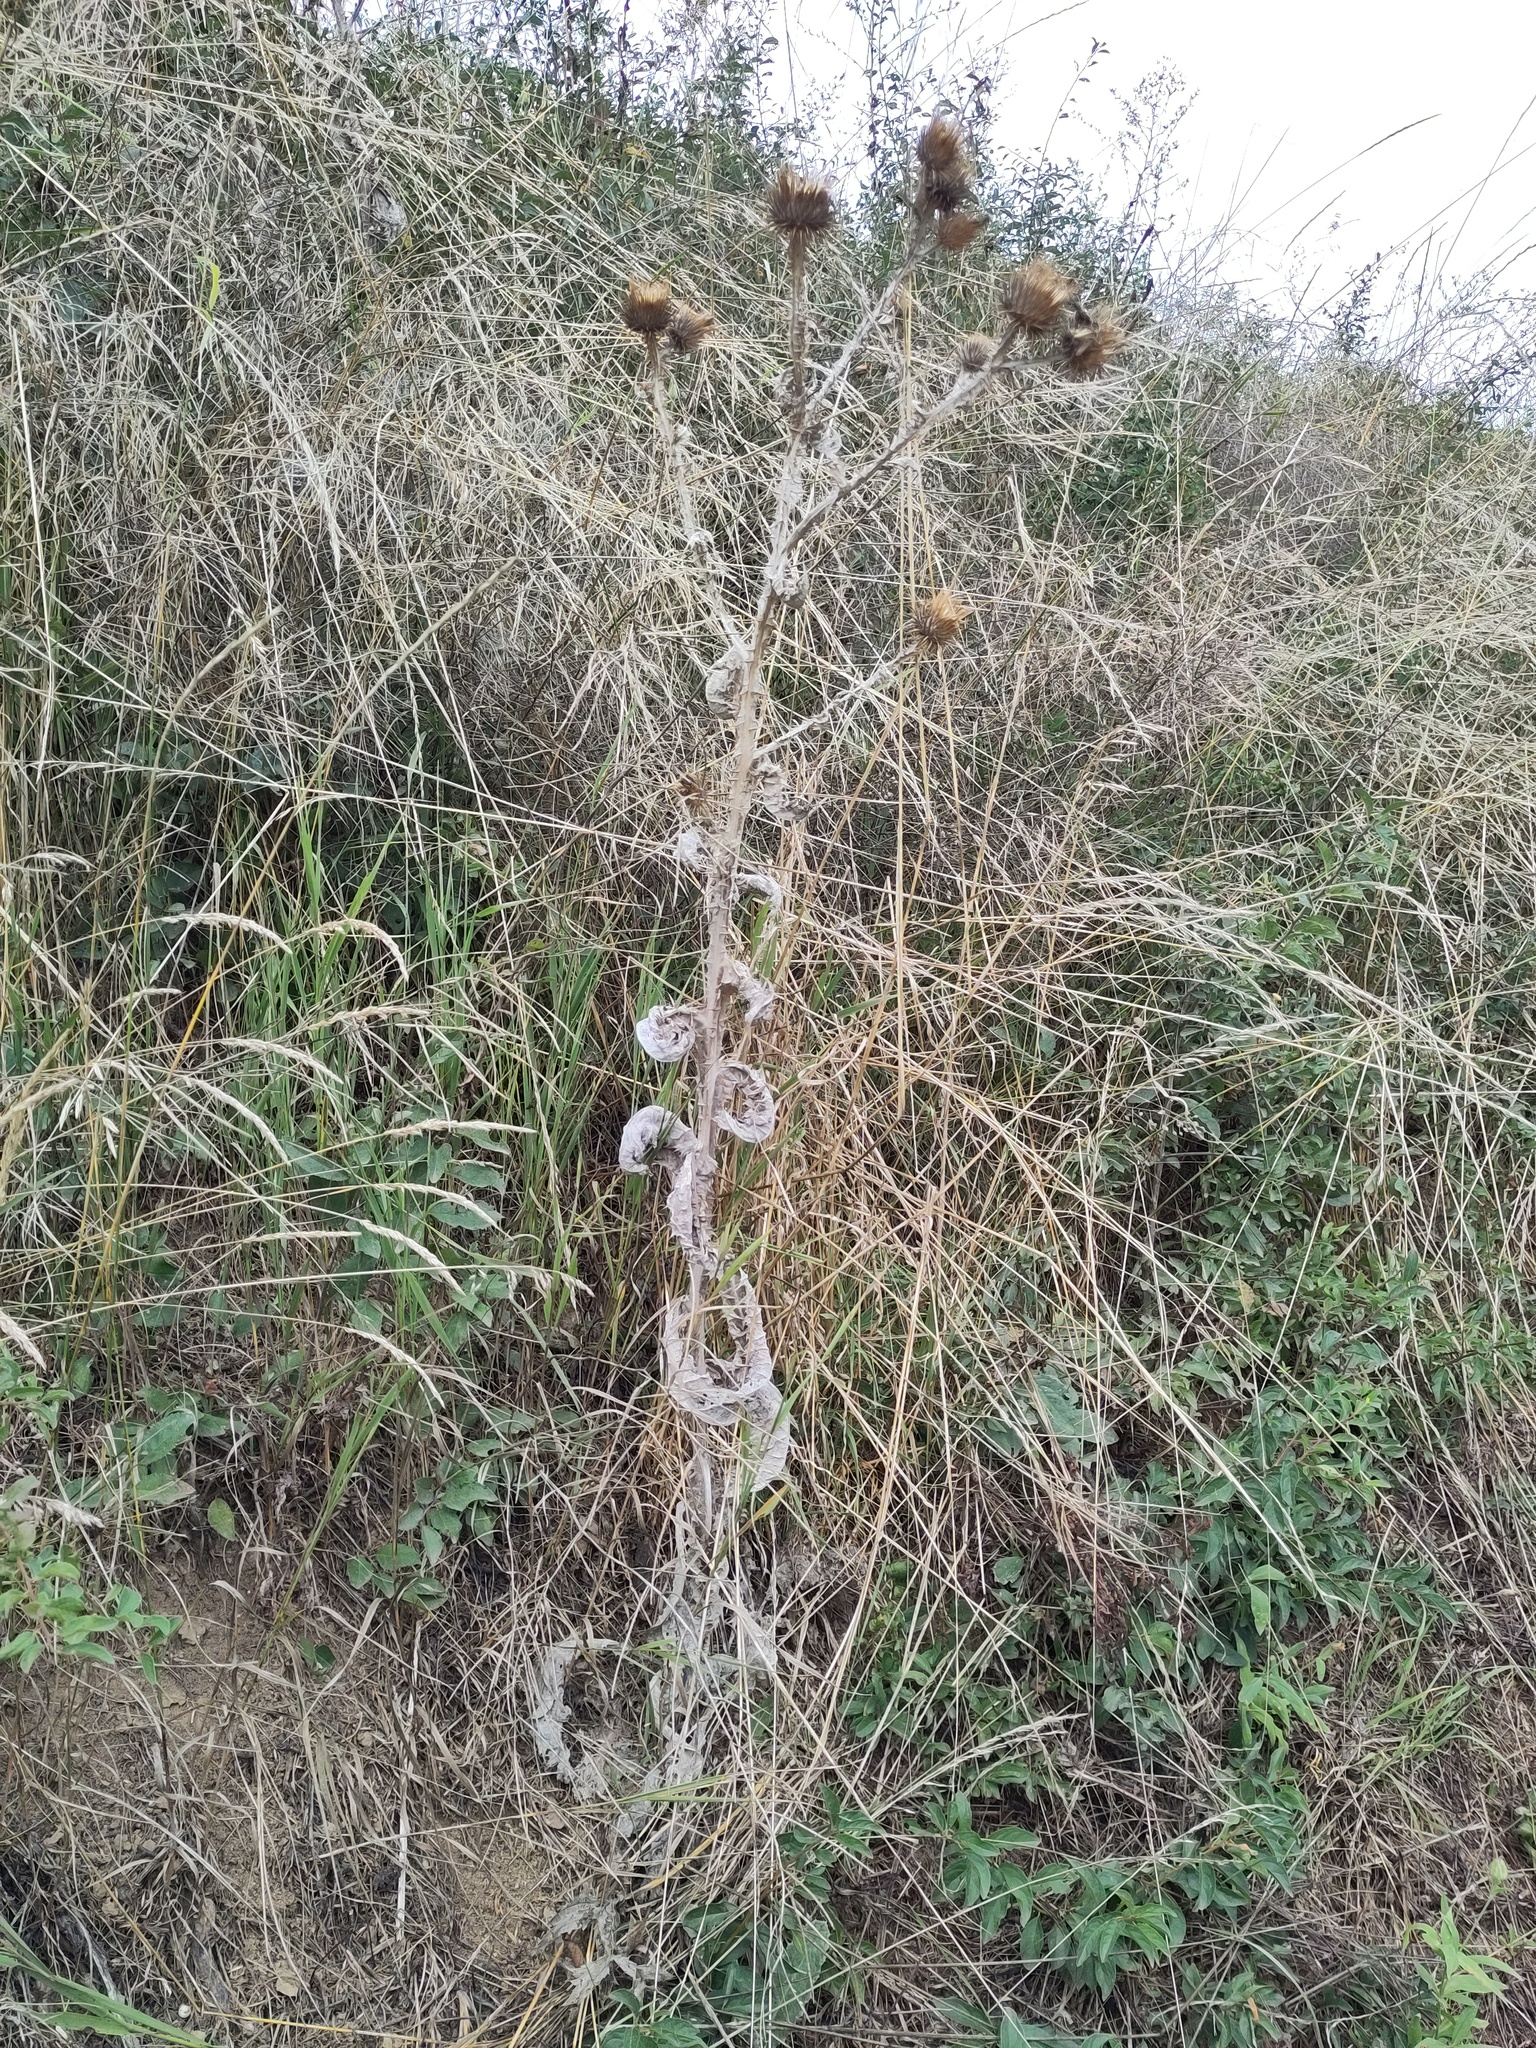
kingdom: Plantae
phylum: Tracheophyta
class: Magnoliopsida
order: Asterales
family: Asteraceae
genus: Onopordum
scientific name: Onopordum acanthium
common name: Scotch thistle
